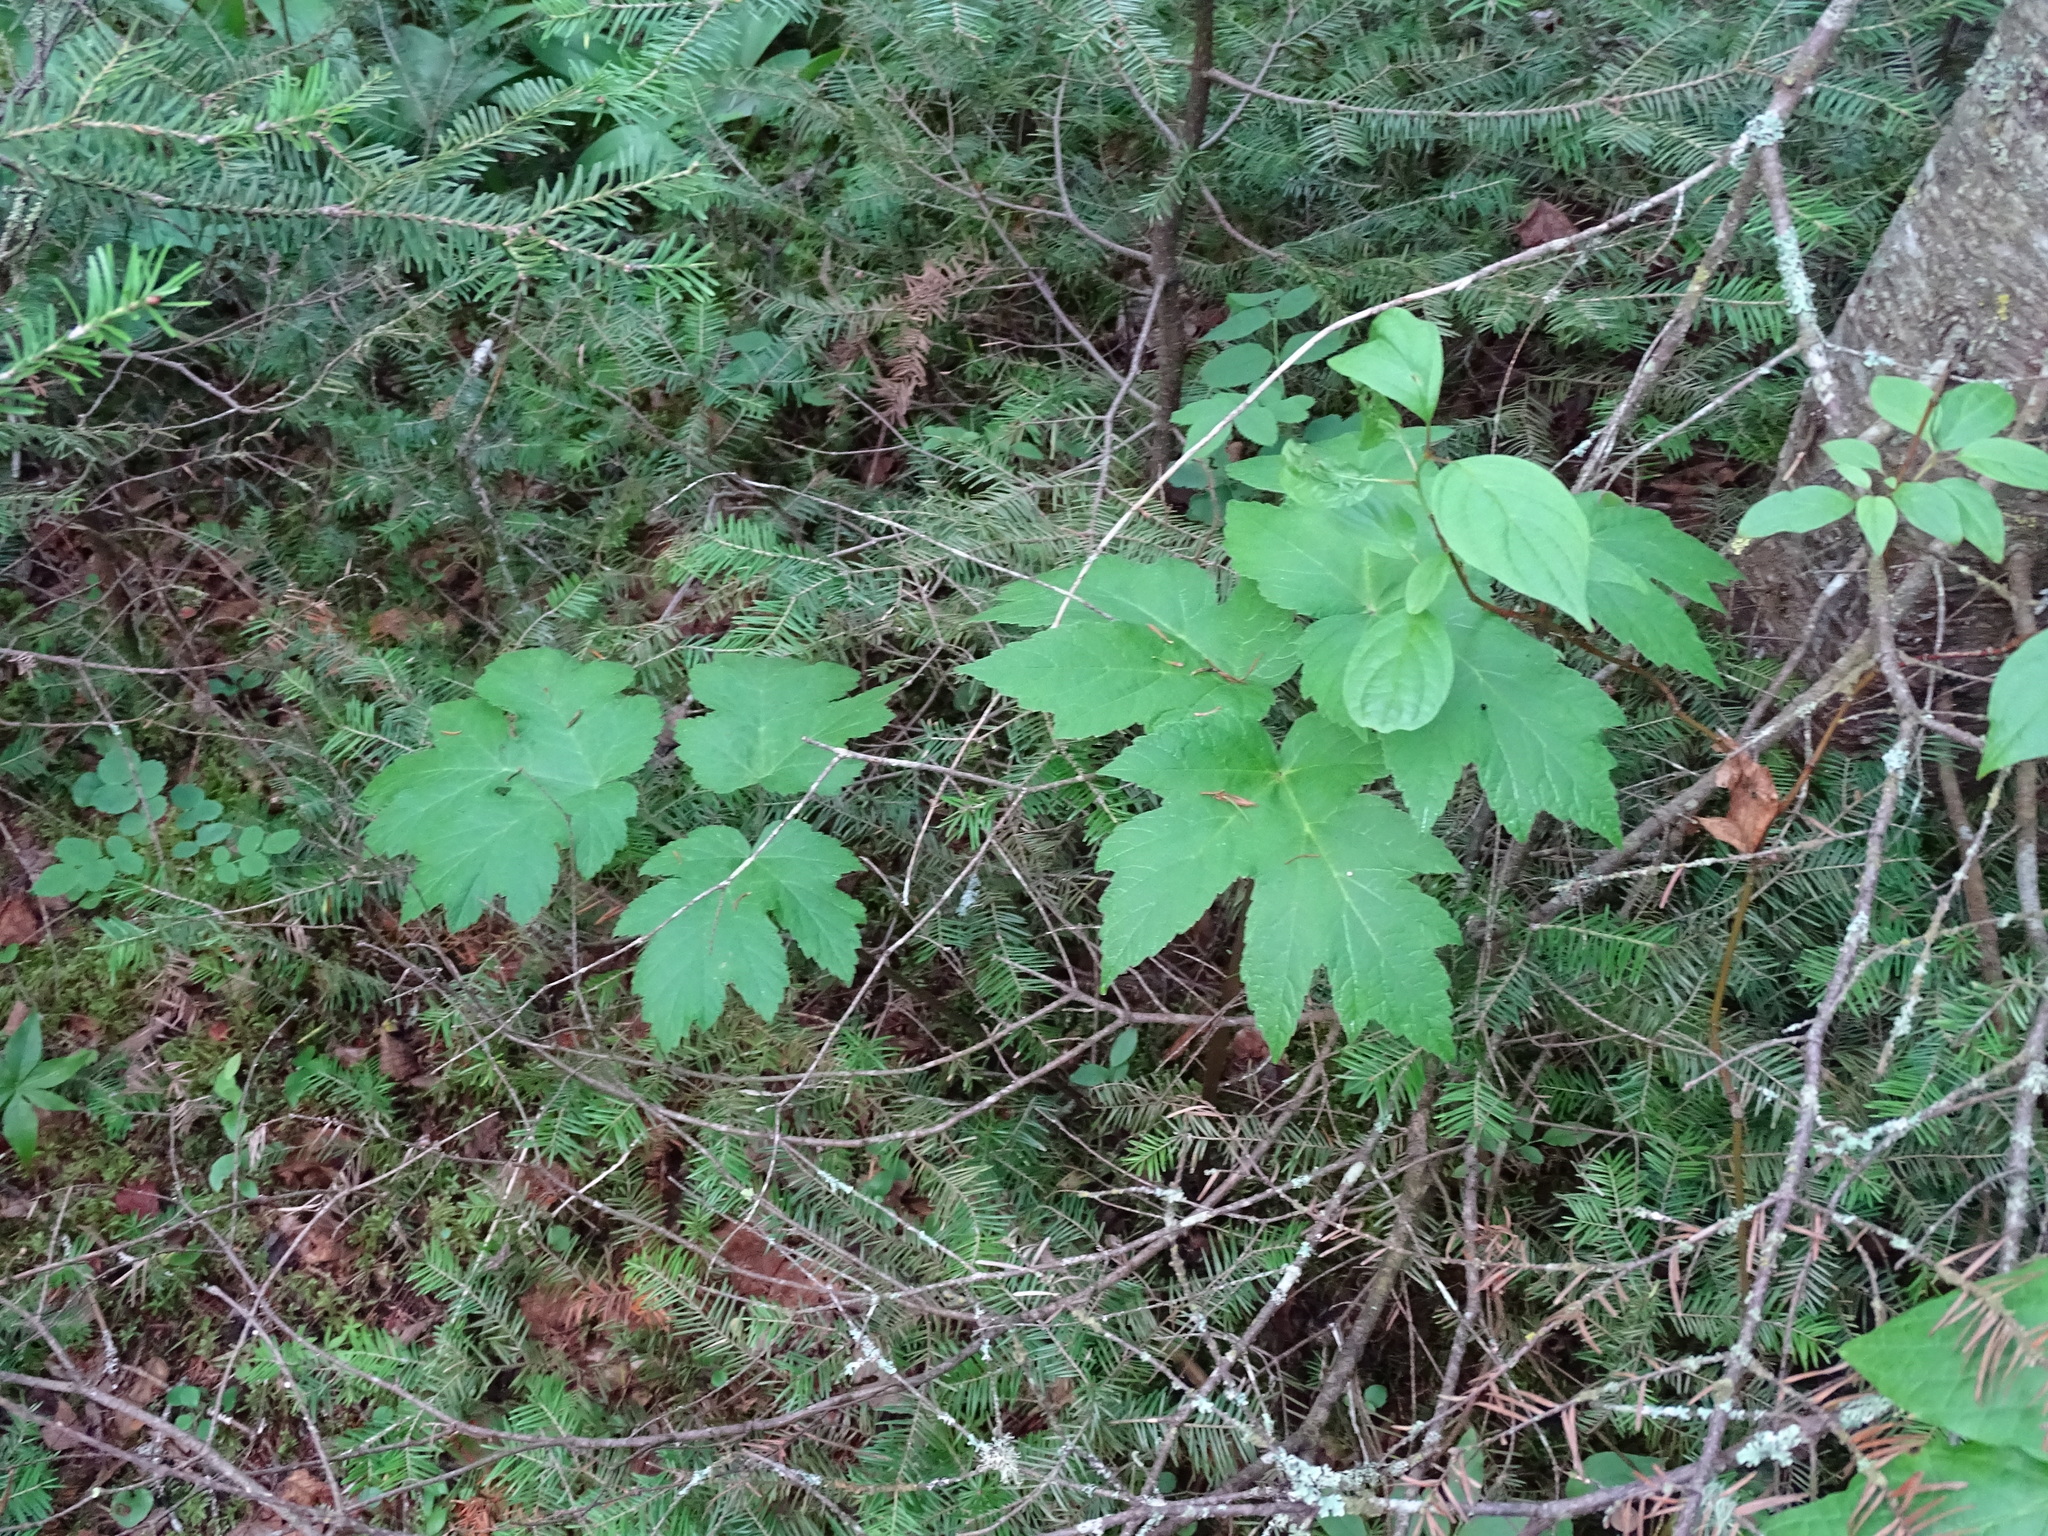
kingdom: Plantae
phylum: Tracheophyta
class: Magnoliopsida
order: Apiales
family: Apiaceae
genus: Heracleum
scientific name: Heracleum maximum
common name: American cow parsnip
